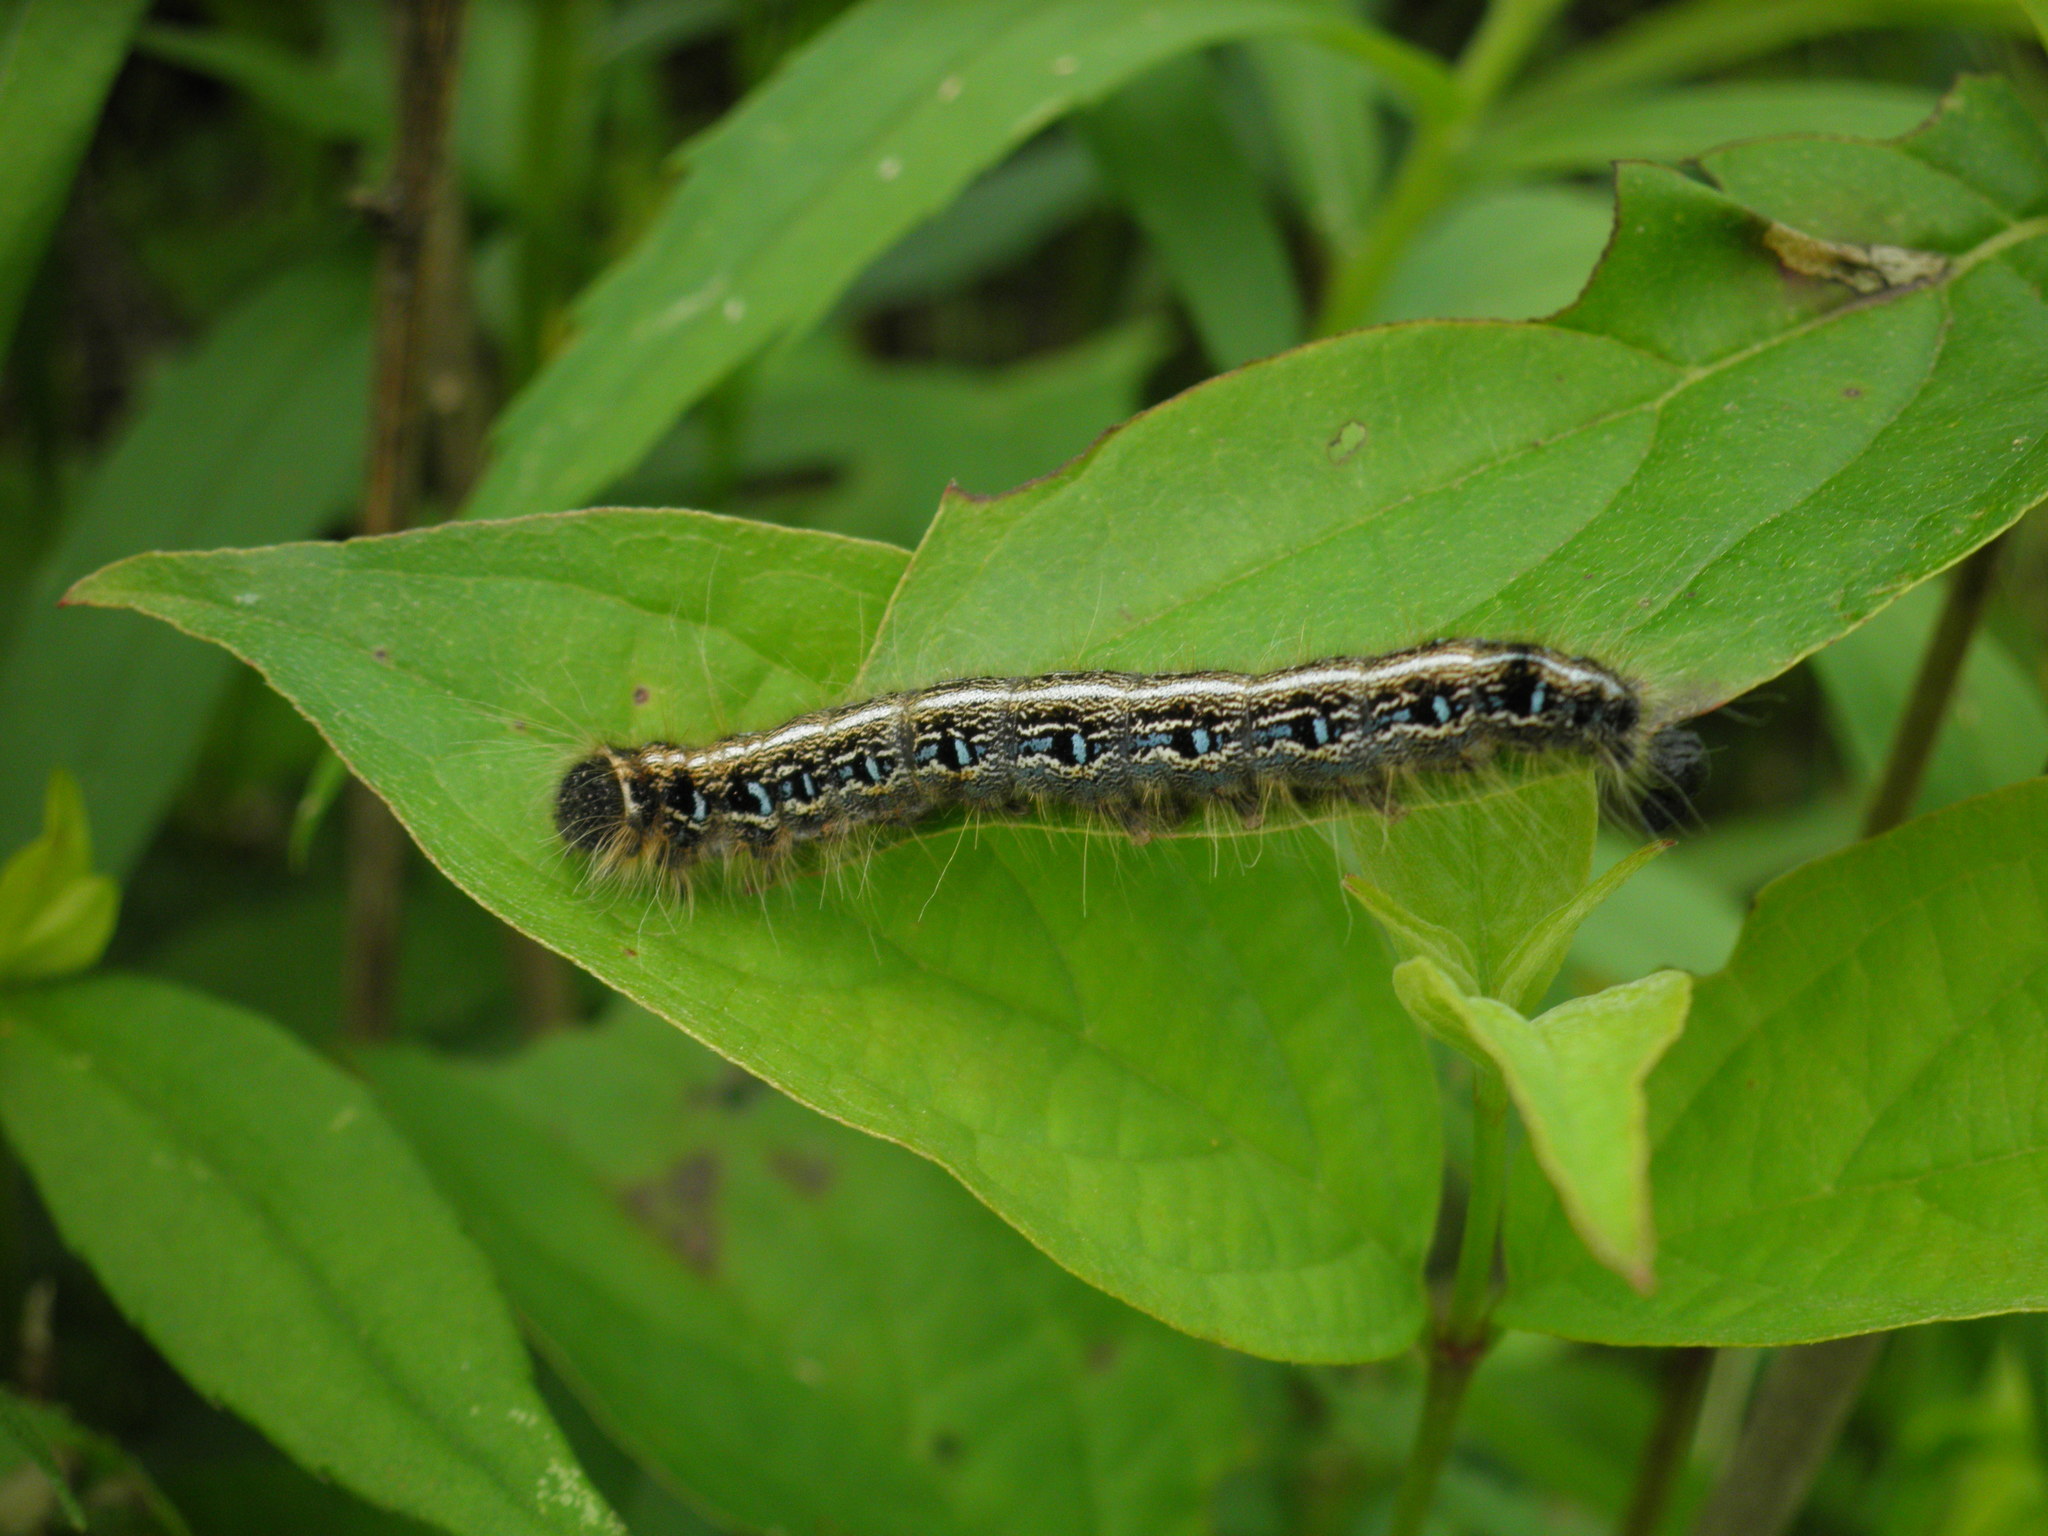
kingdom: Animalia
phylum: Arthropoda
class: Insecta
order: Lepidoptera
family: Lasiocampidae
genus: Malacosoma
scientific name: Malacosoma americana
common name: Eastern tent caterpillar moth
